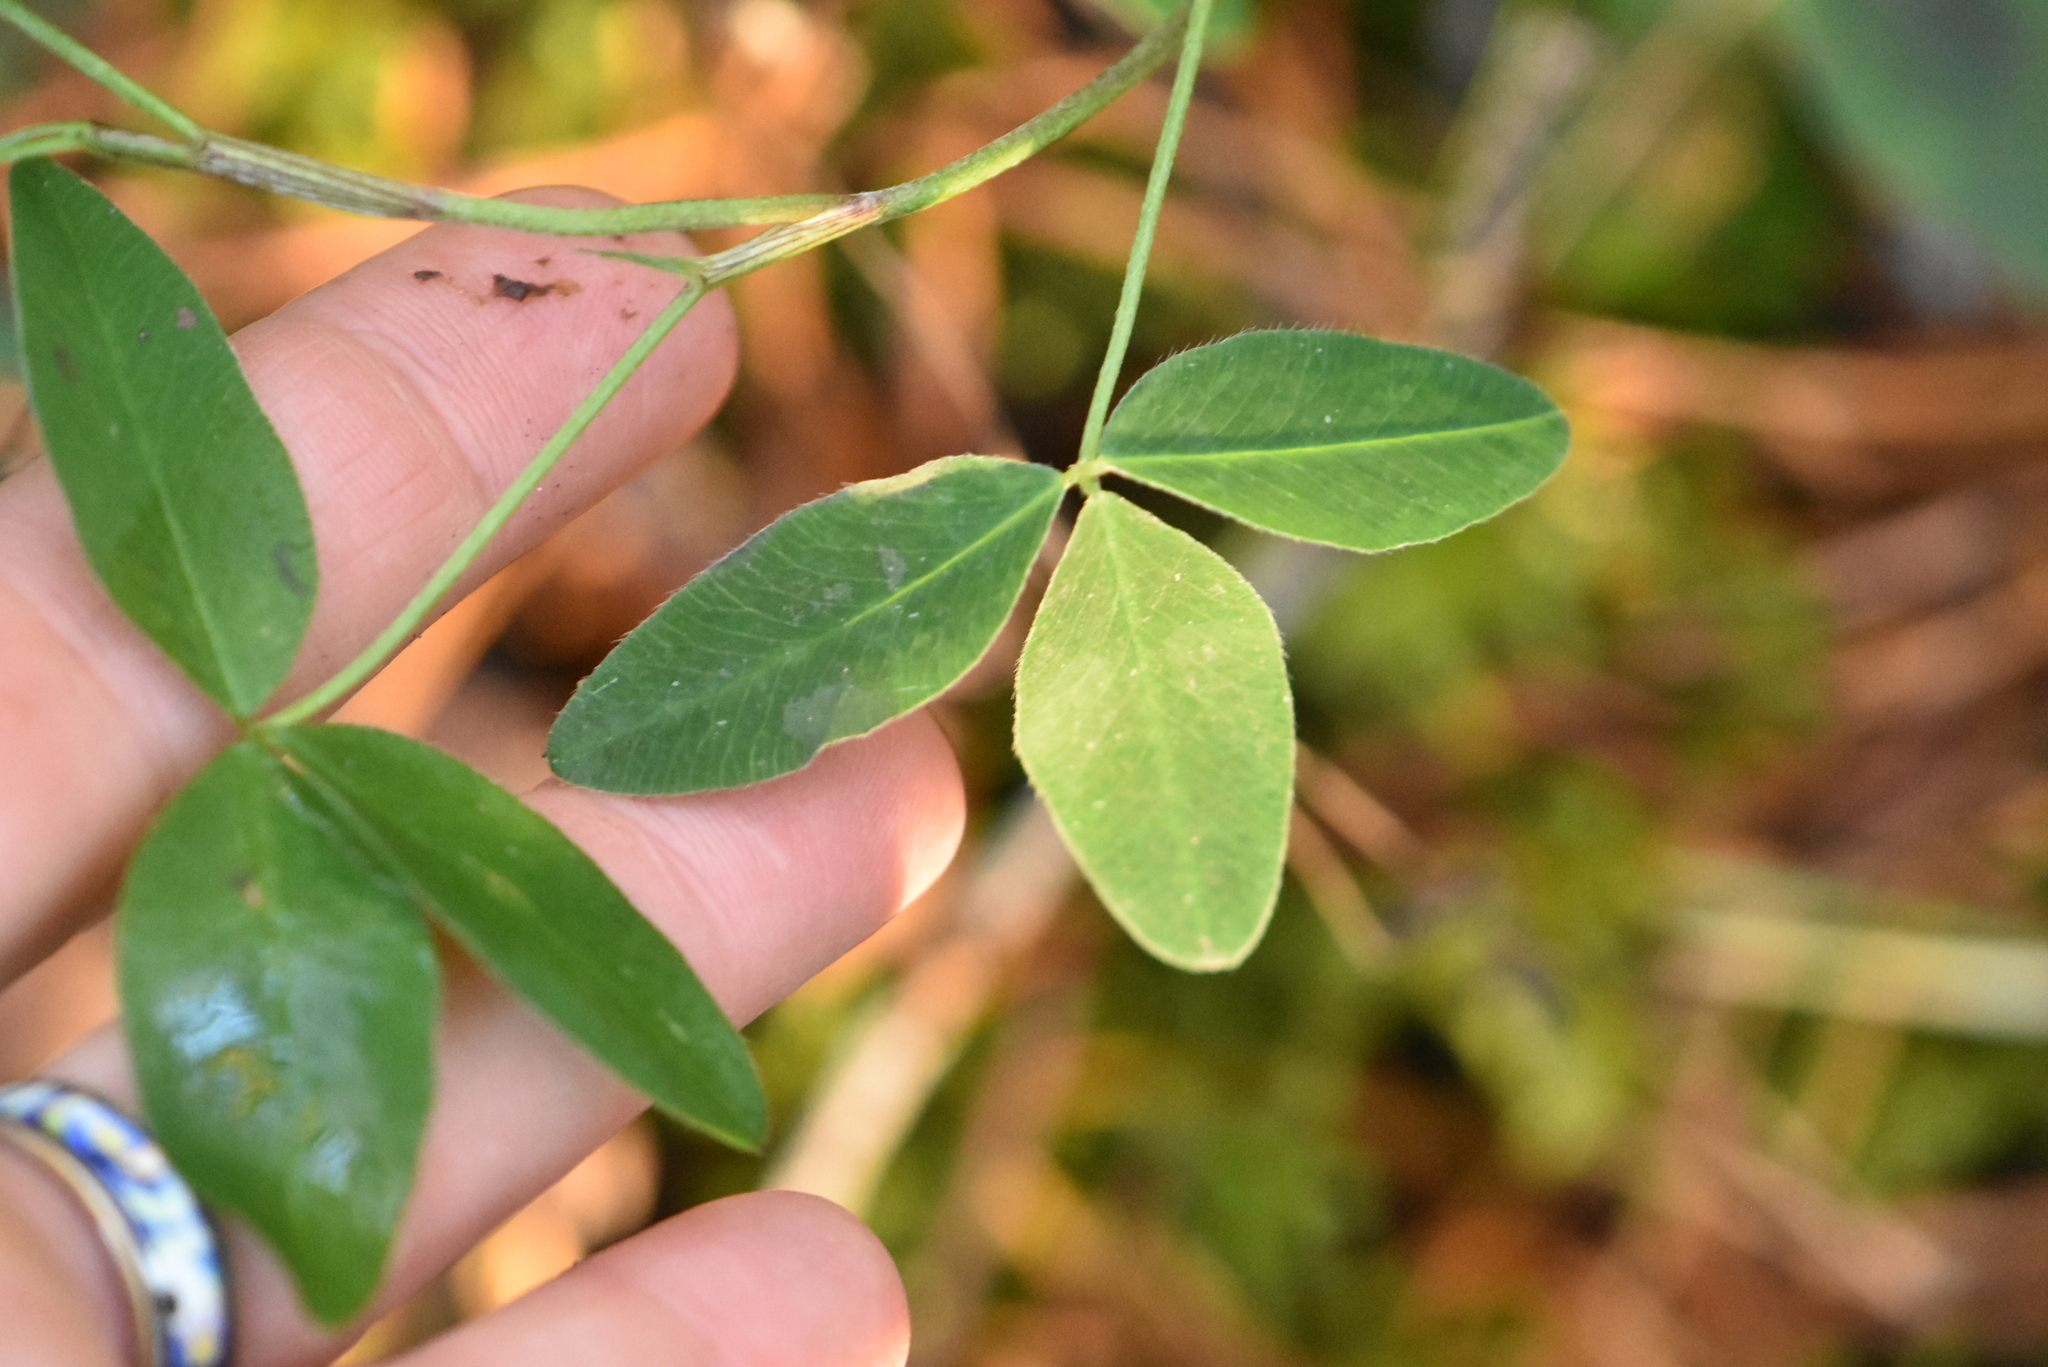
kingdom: Plantae
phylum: Tracheophyta
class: Magnoliopsida
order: Fabales
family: Fabaceae
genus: Trifolium
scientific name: Trifolium medium
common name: Zigzag clover
